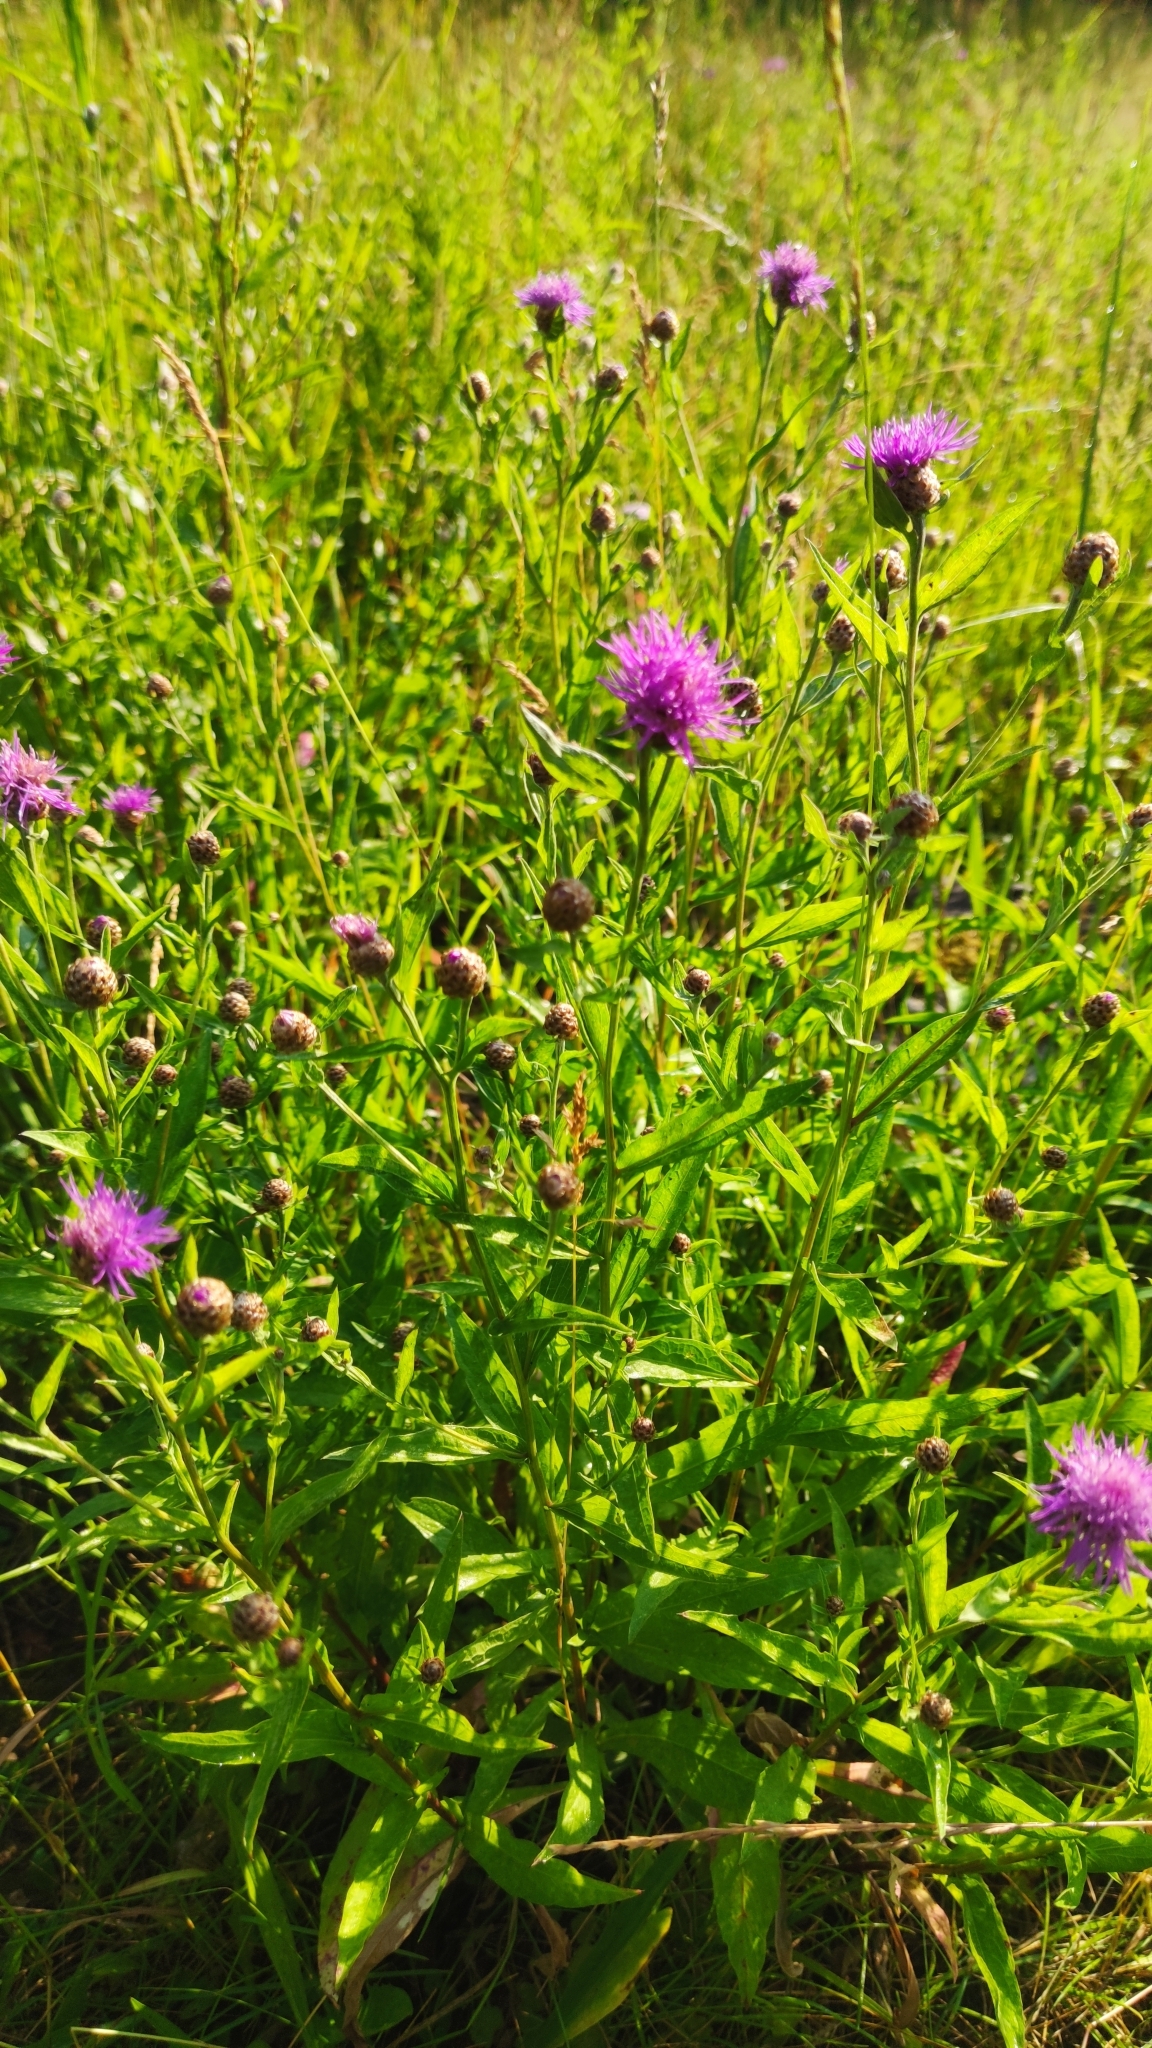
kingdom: Plantae
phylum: Tracheophyta
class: Magnoliopsida
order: Asterales
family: Asteraceae
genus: Centaurea
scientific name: Centaurea jacea
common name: Brown knapweed
